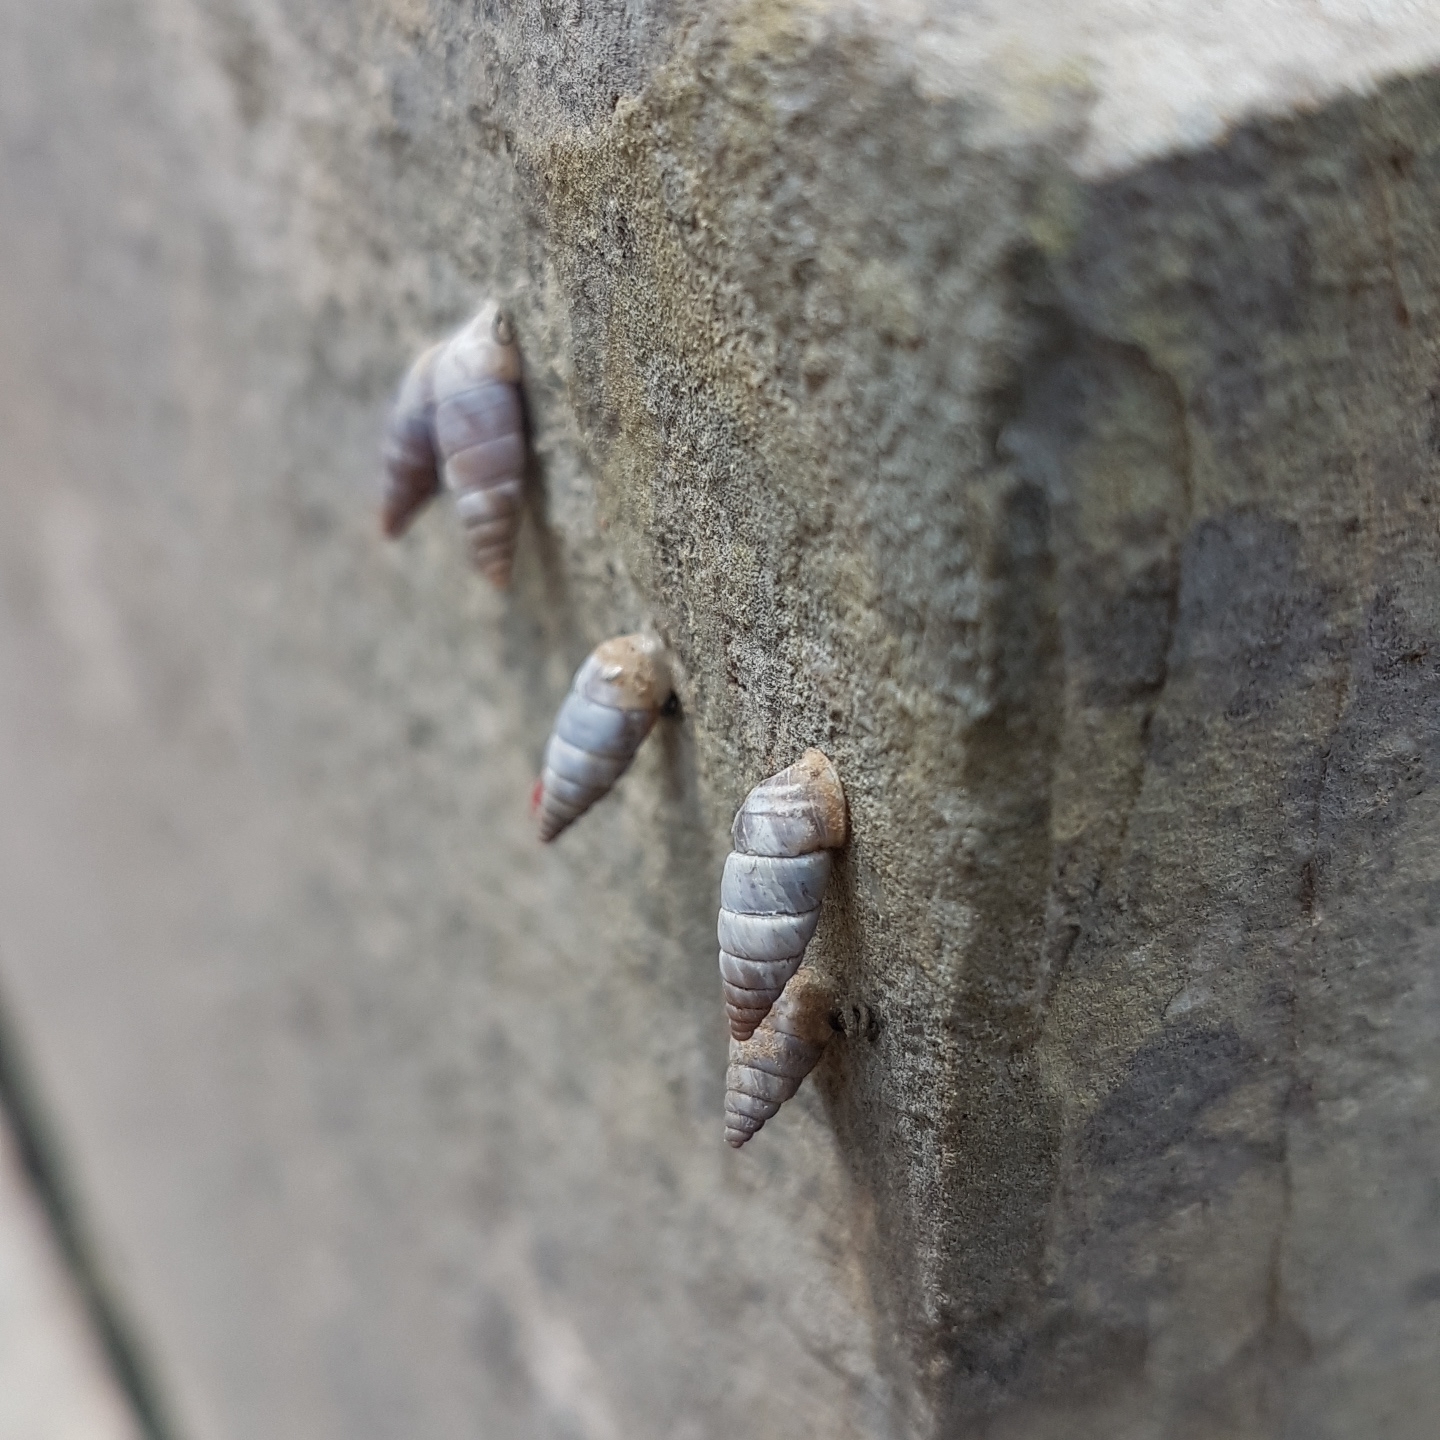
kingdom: Animalia
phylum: Mollusca
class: Gastropoda
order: Stylommatophora
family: Chondrinidae
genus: Solatopupa
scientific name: Solatopupa similis
